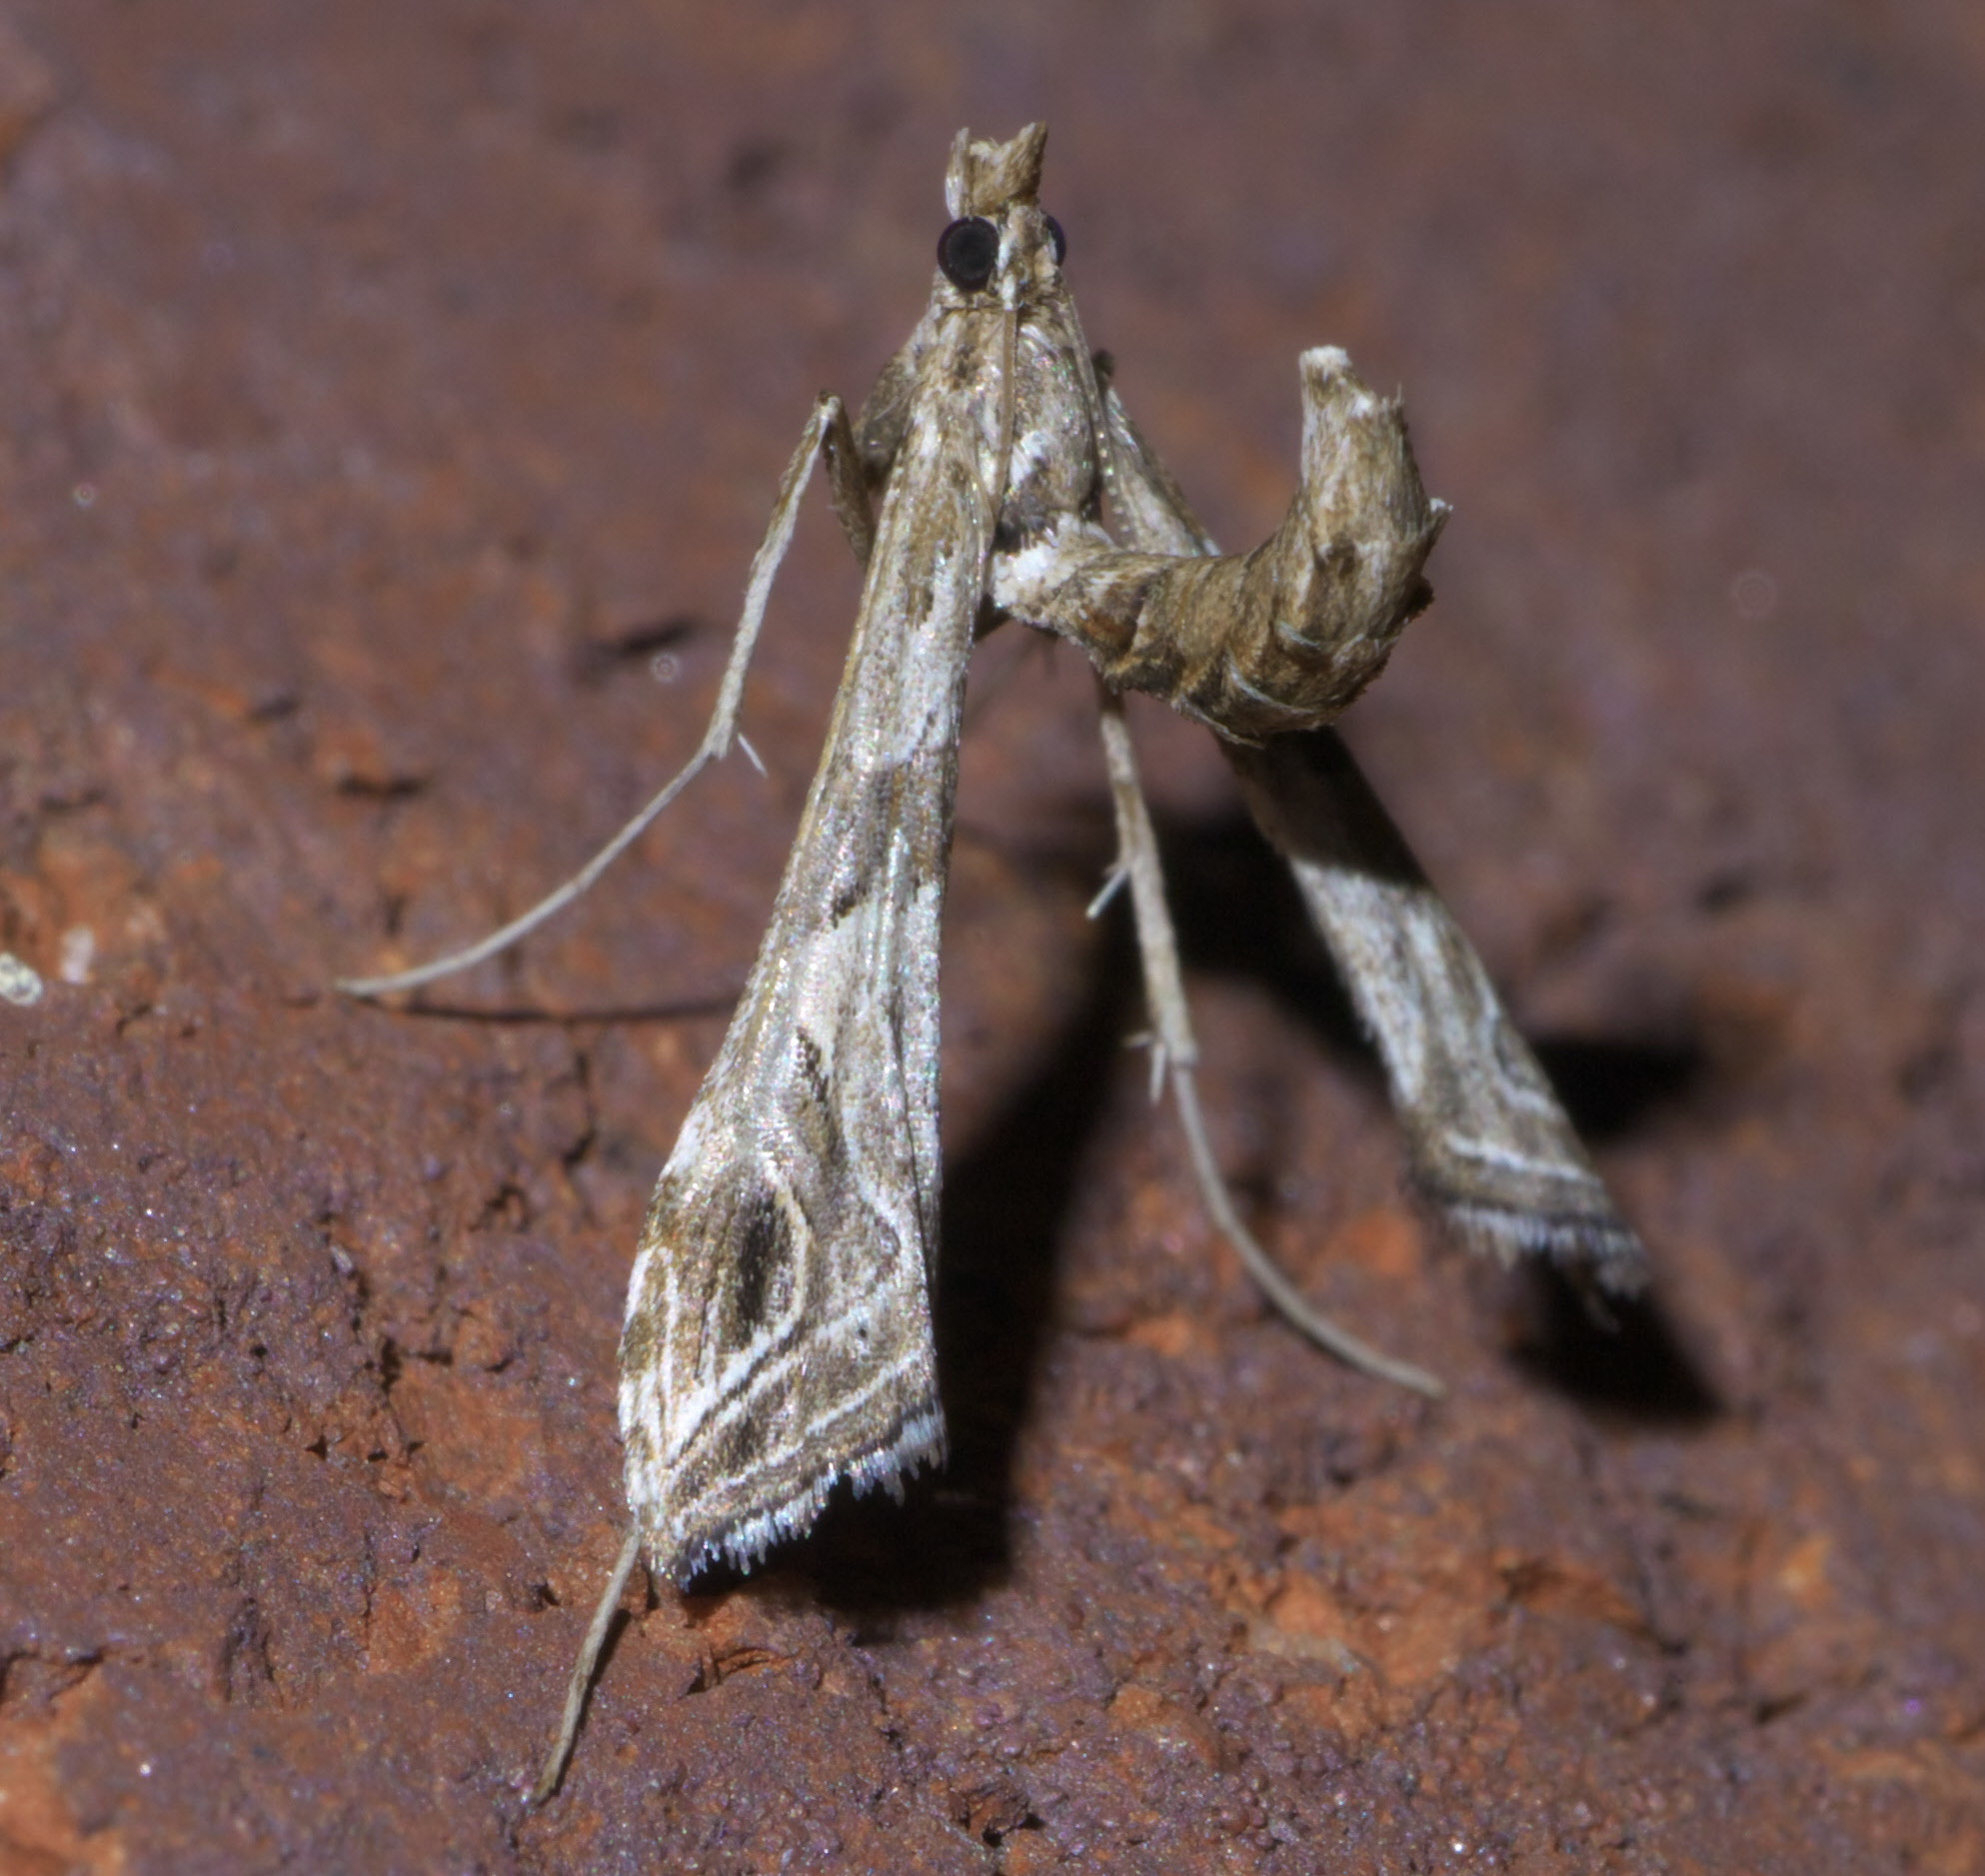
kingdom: Animalia
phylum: Arthropoda
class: Insecta
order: Lepidoptera
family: Crambidae
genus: Lineodes
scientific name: Lineodes interrupta
